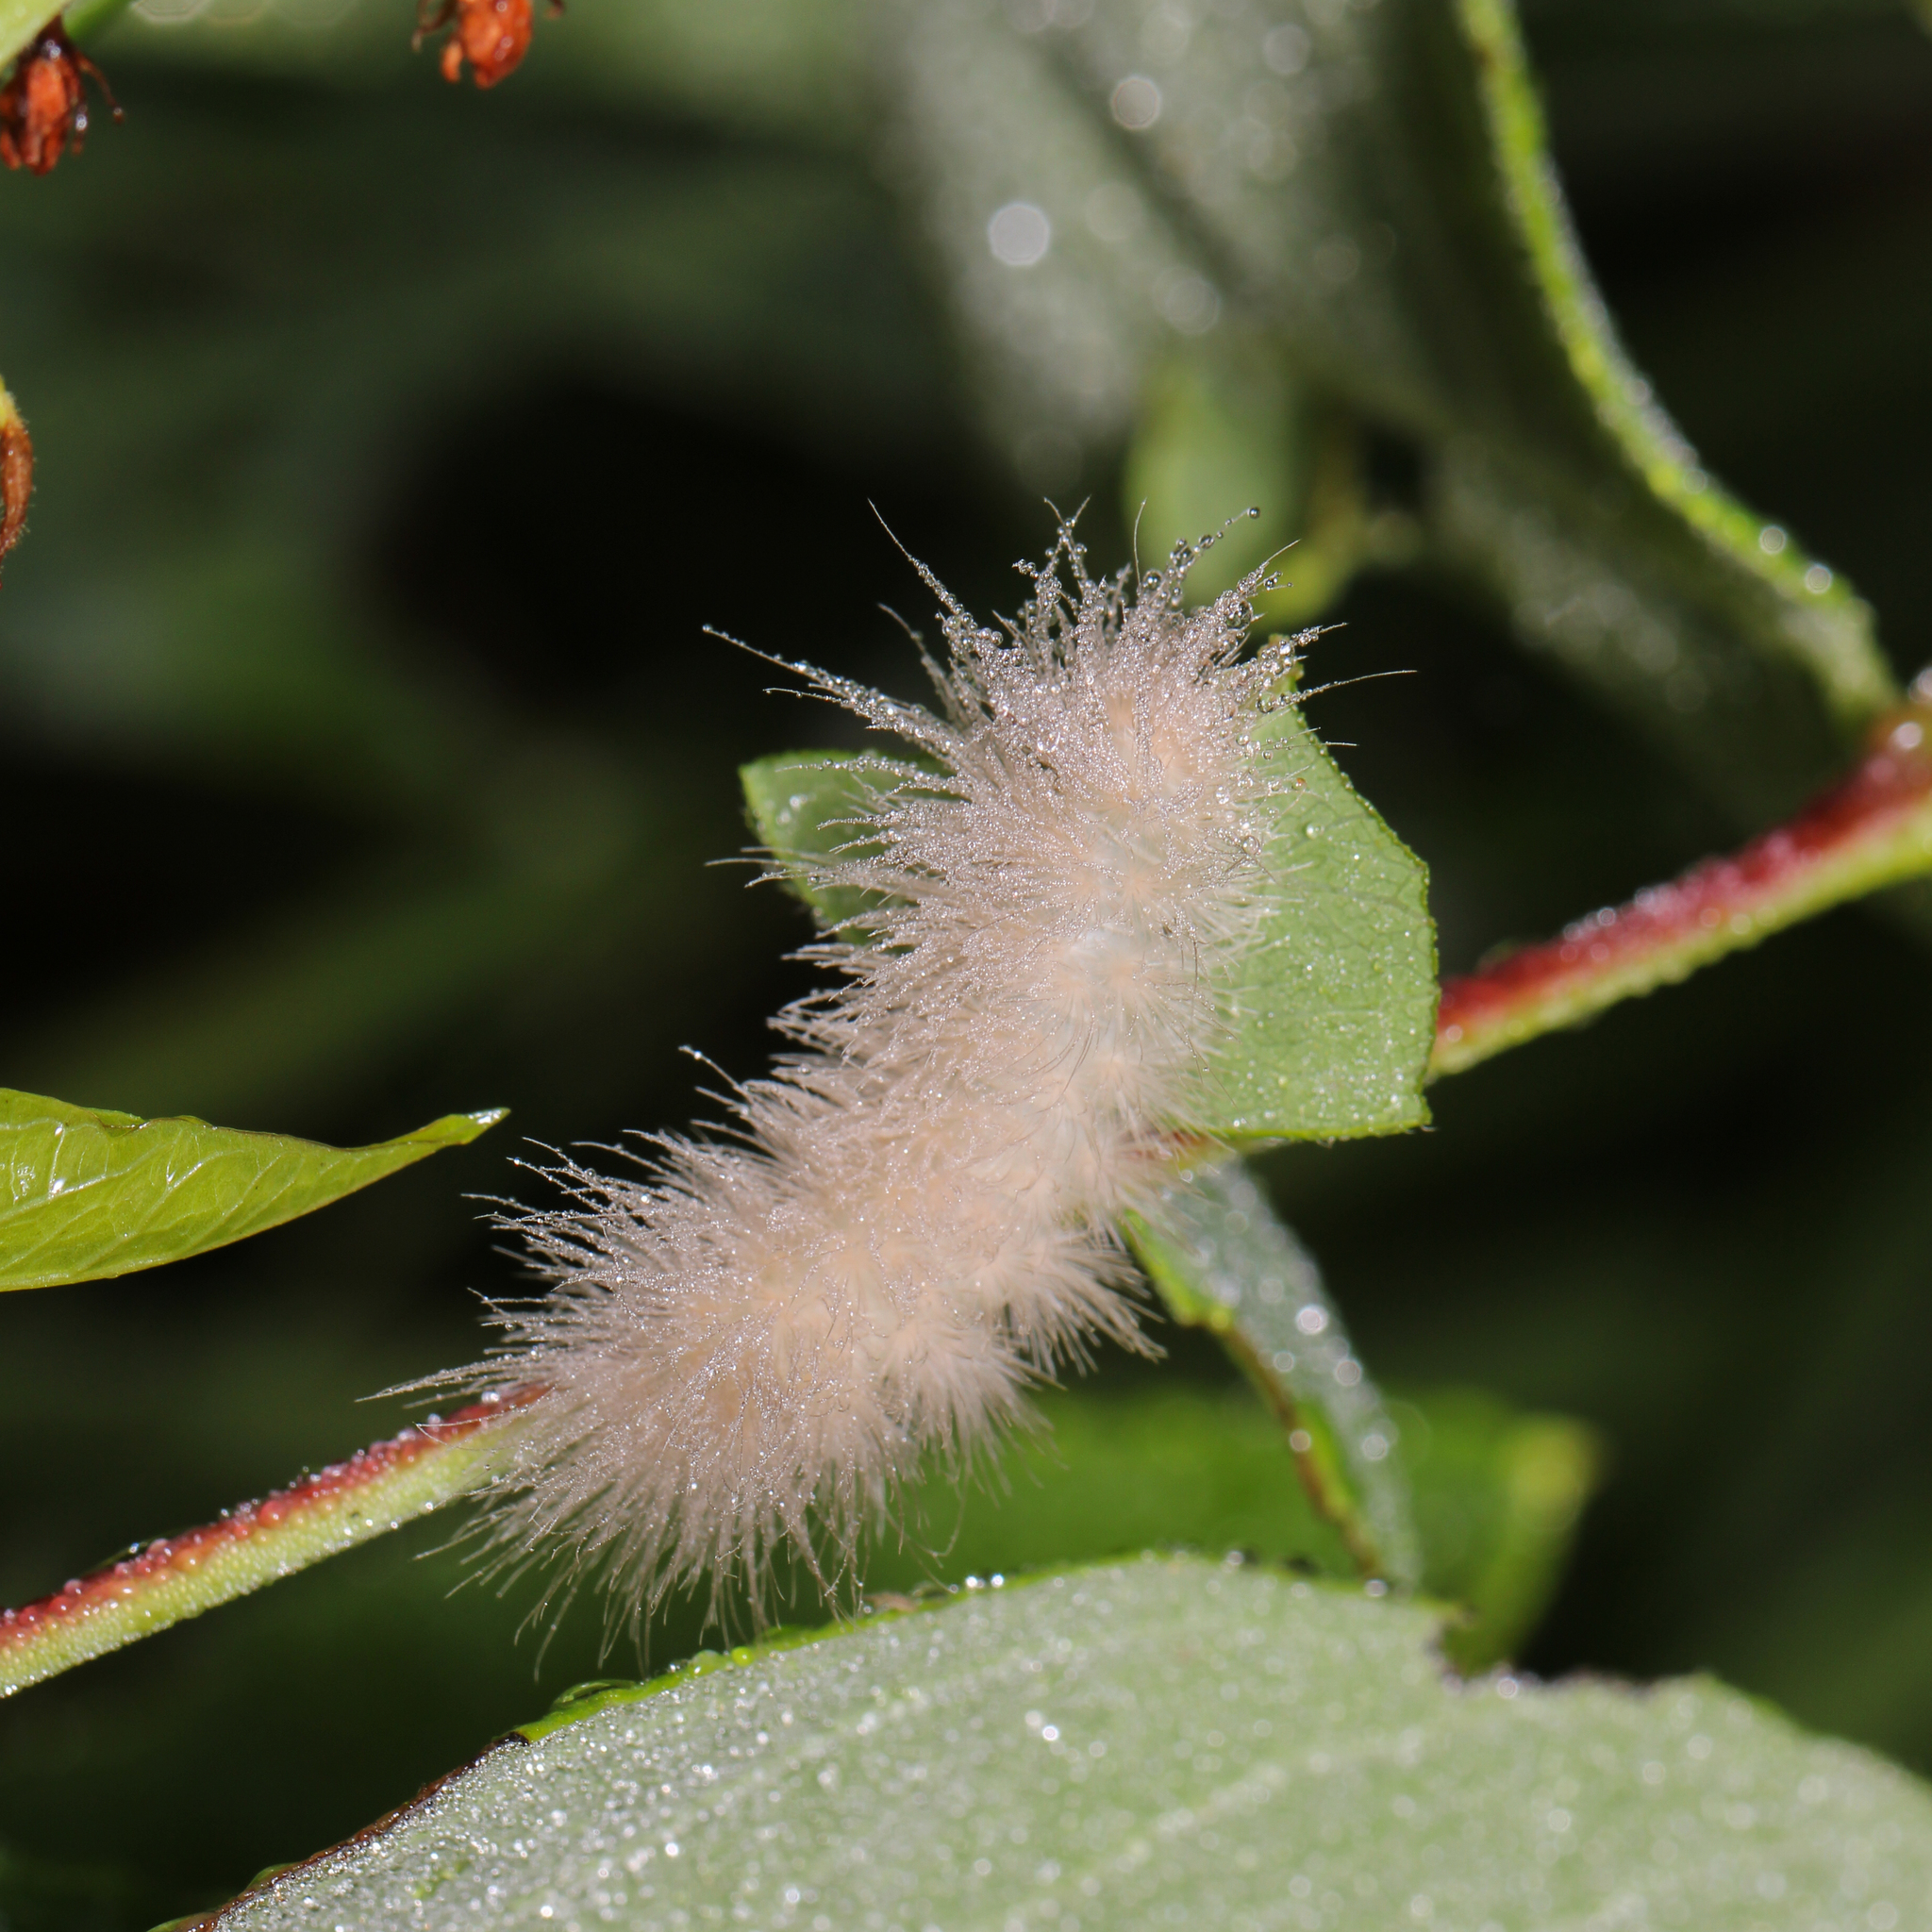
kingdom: Animalia
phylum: Arthropoda
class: Insecta
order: Lepidoptera
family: Erebidae
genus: Cycnia
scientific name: Cycnia tenera
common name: Delicate cycnia moth
